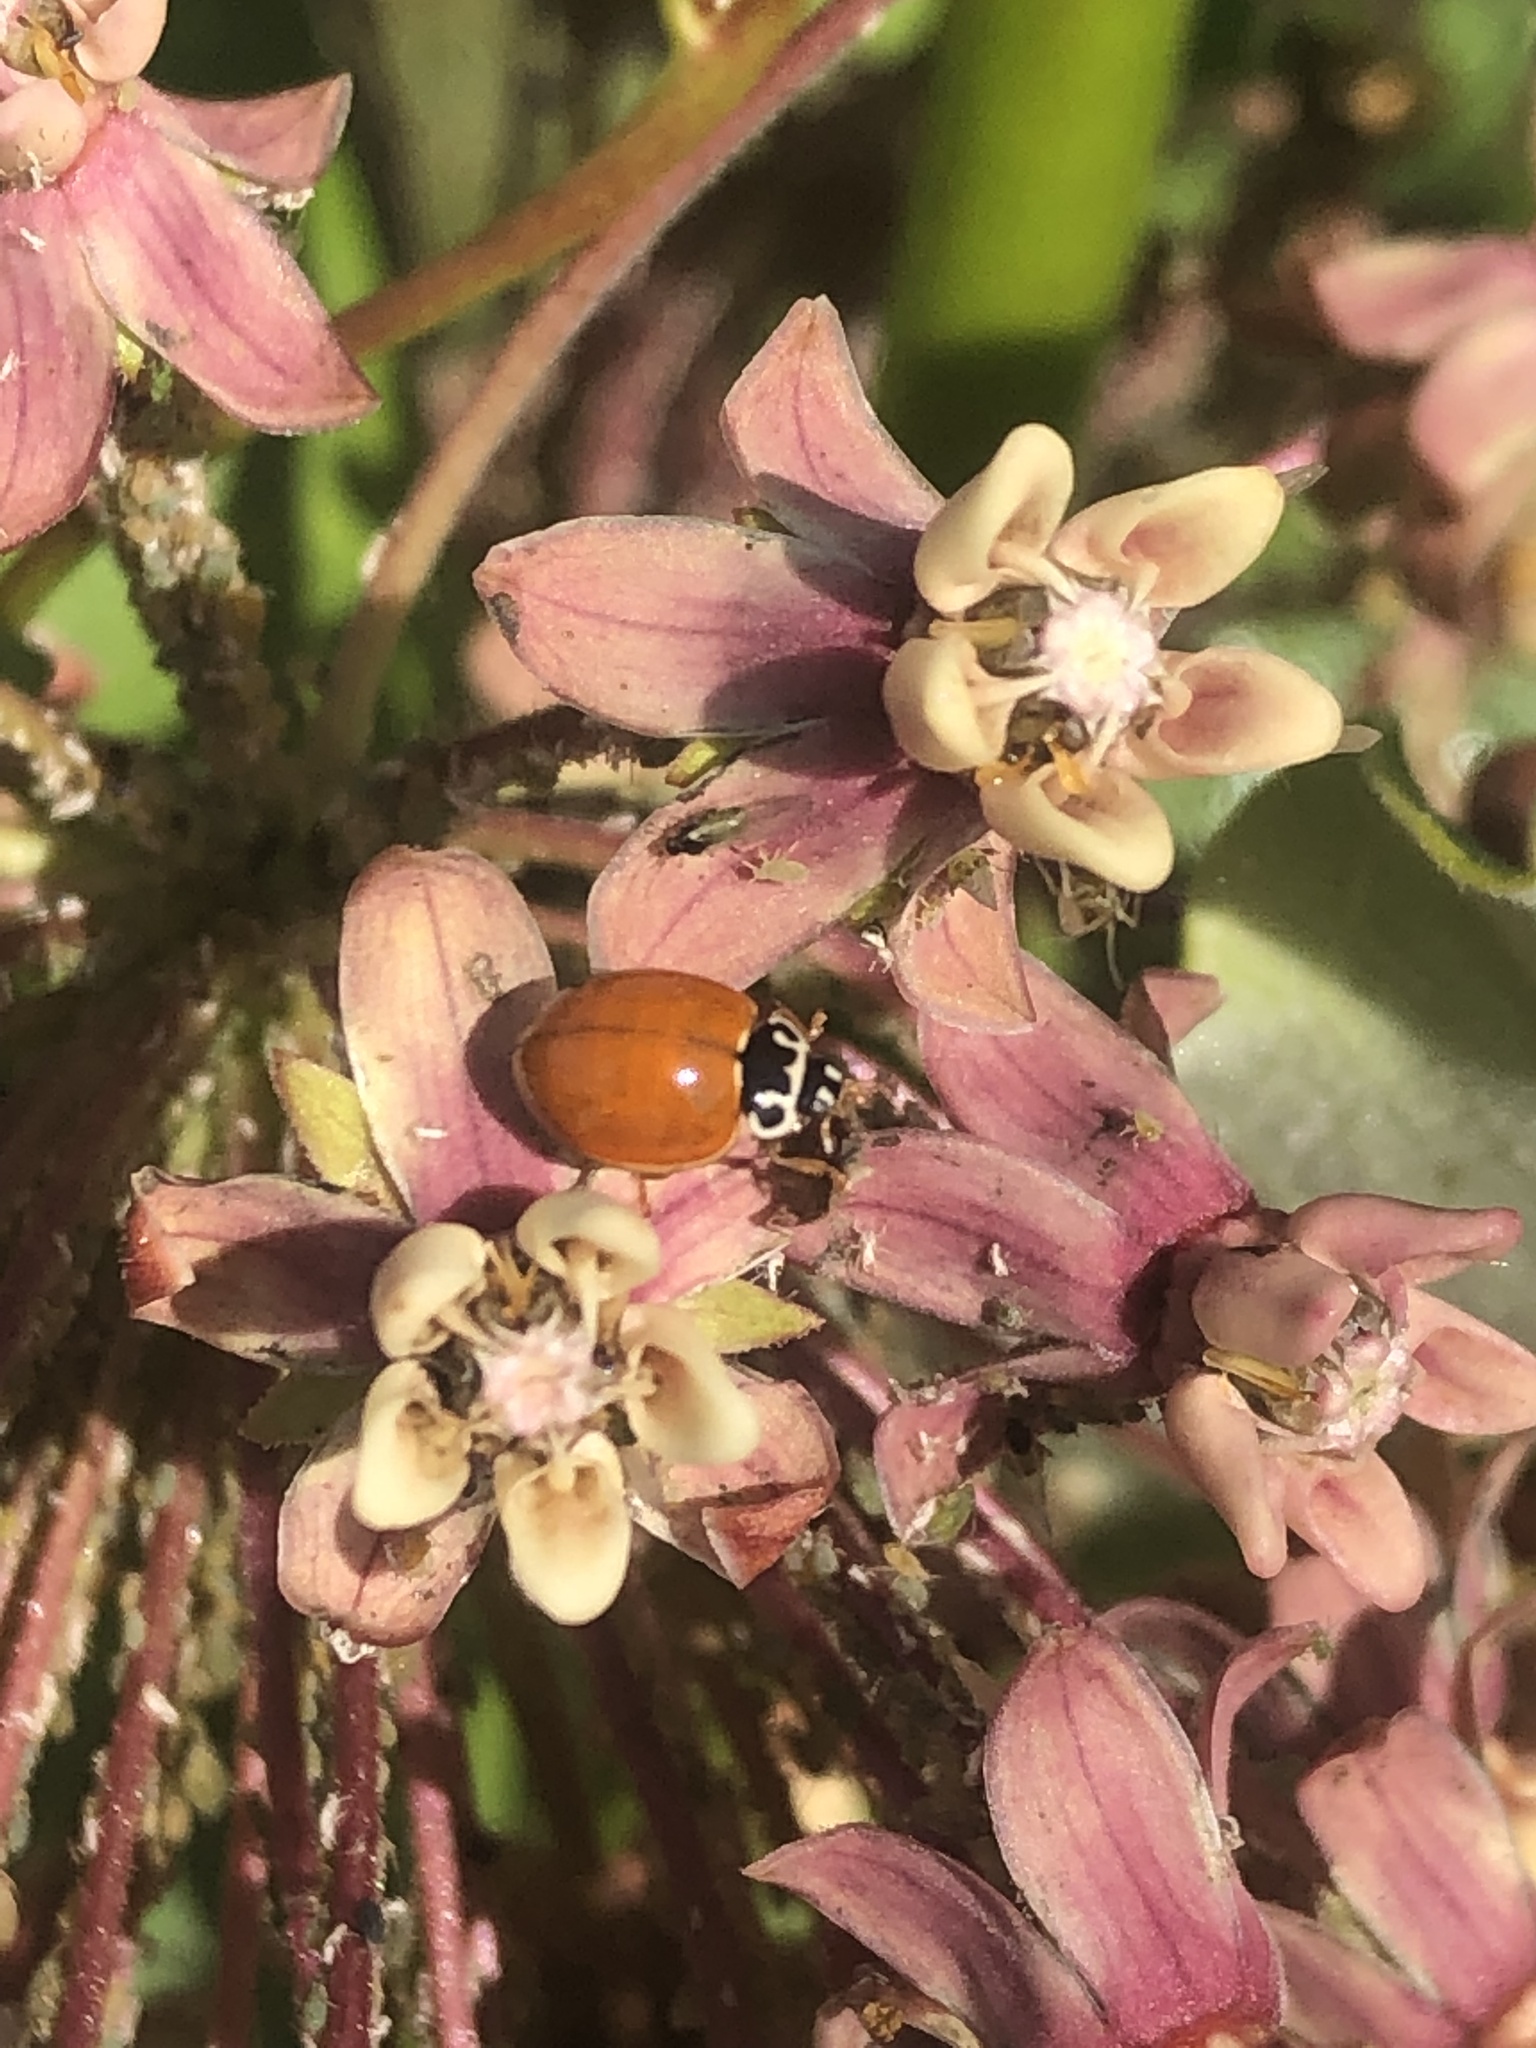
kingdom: Animalia
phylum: Arthropoda
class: Insecta
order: Coleoptera
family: Coccinellidae
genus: Cycloneda
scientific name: Cycloneda munda
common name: Polished lady beetle
